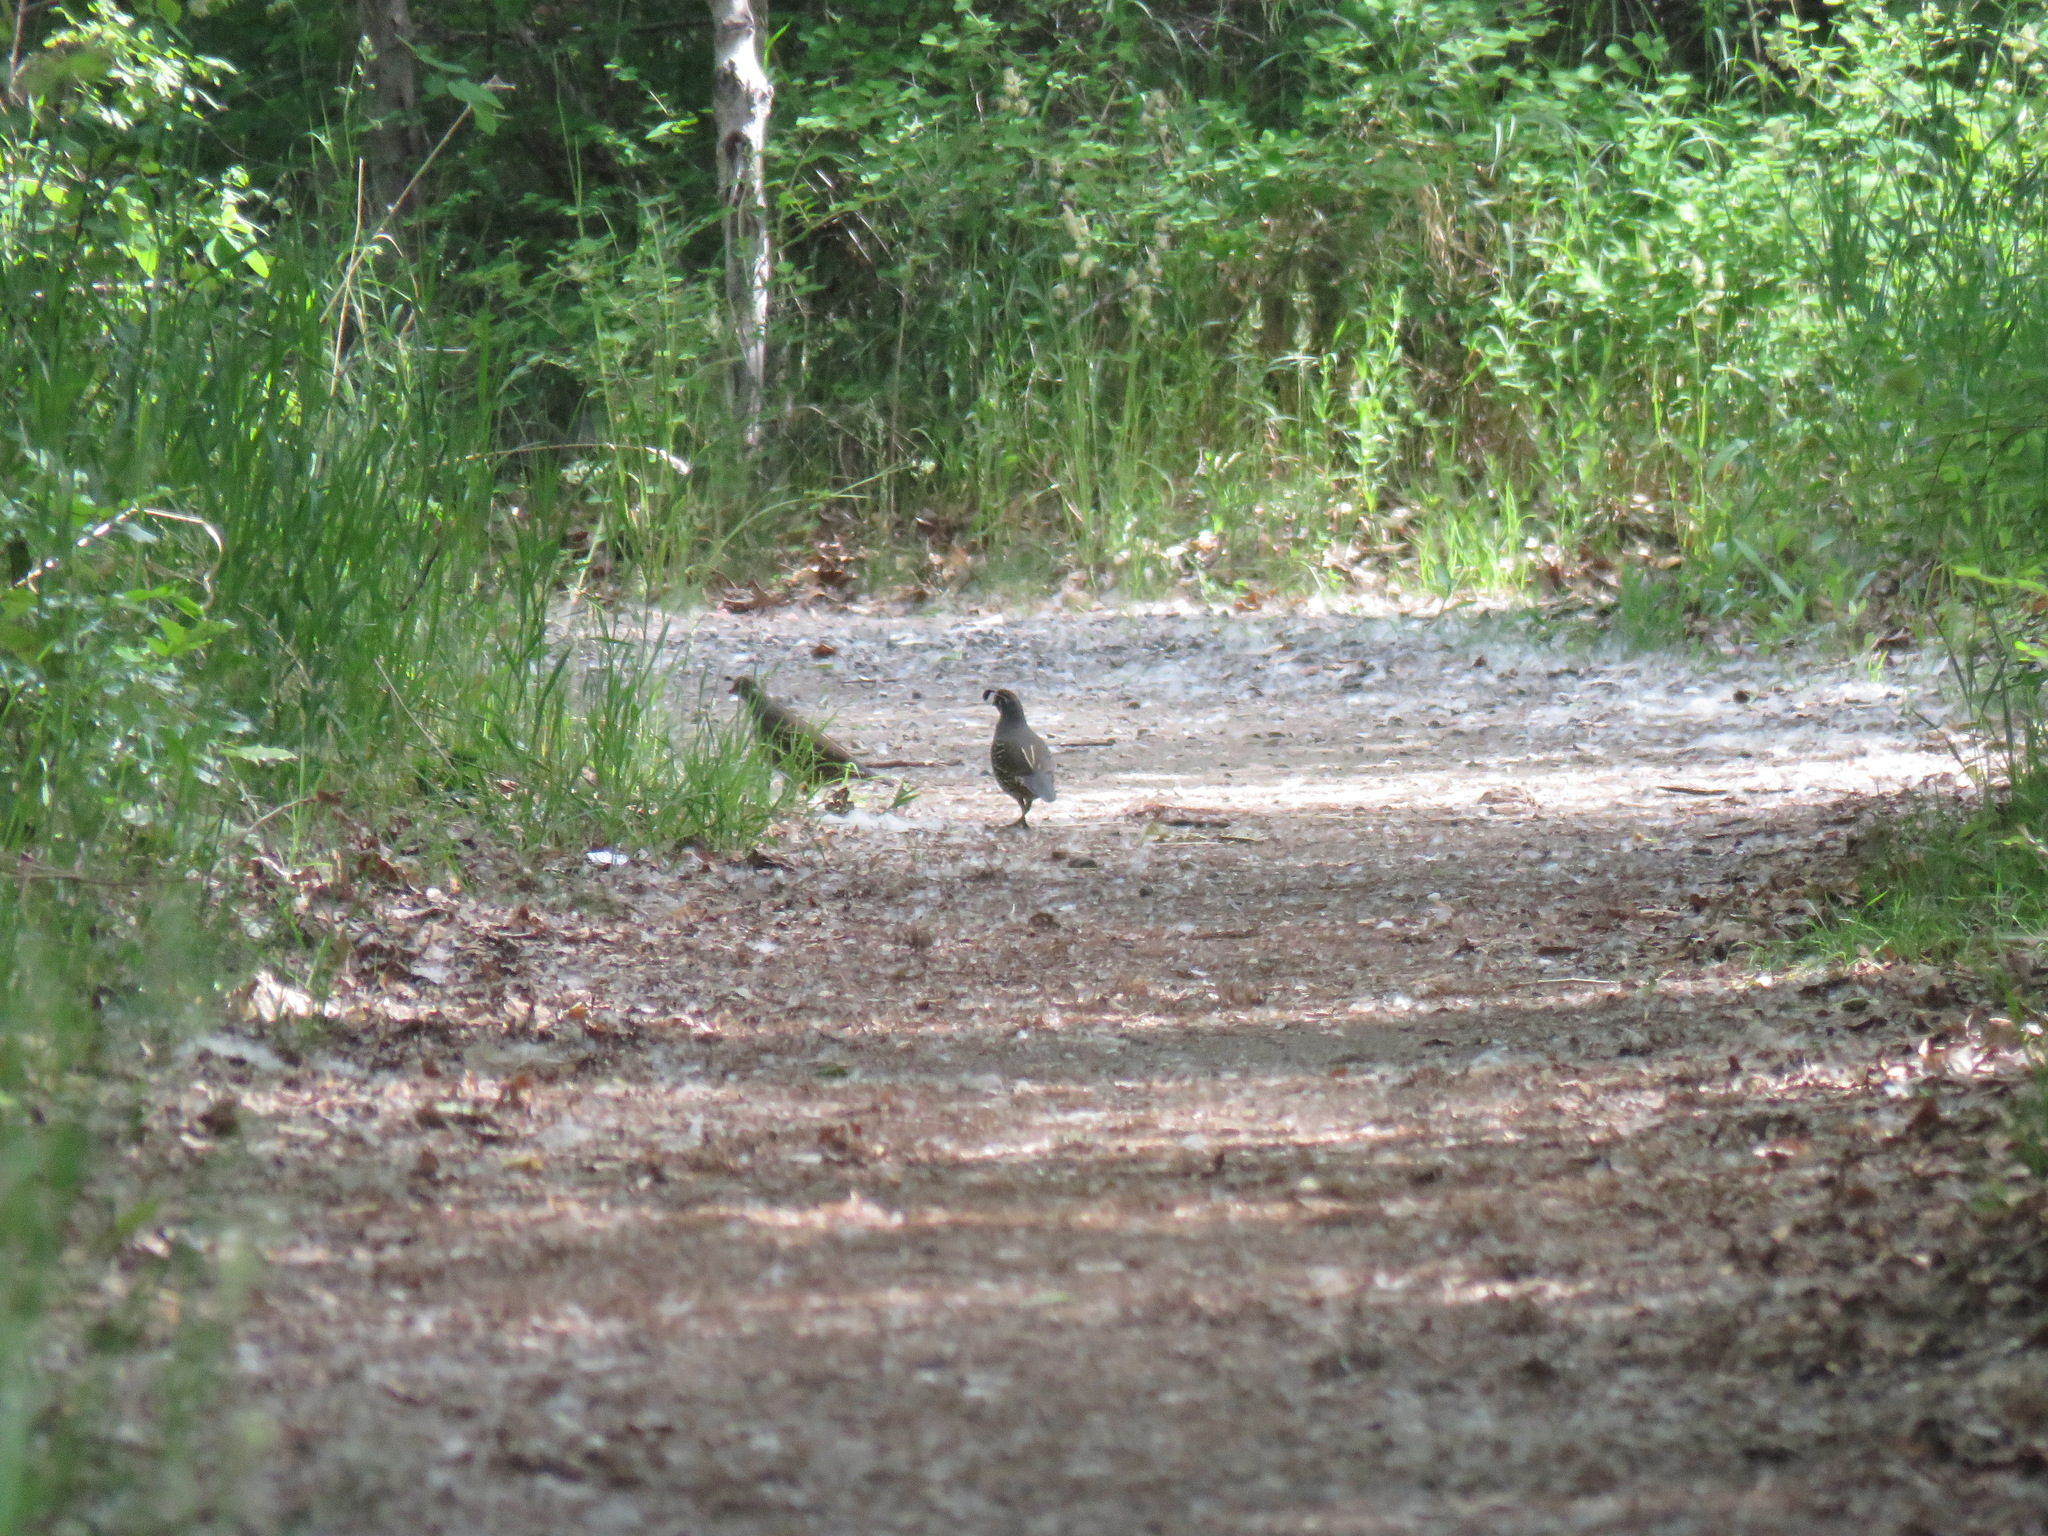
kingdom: Animalia
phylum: Chordata
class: Aves
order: Galliformes
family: Odontophoridae
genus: Callipepla
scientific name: Callipepla californica
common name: California quail
